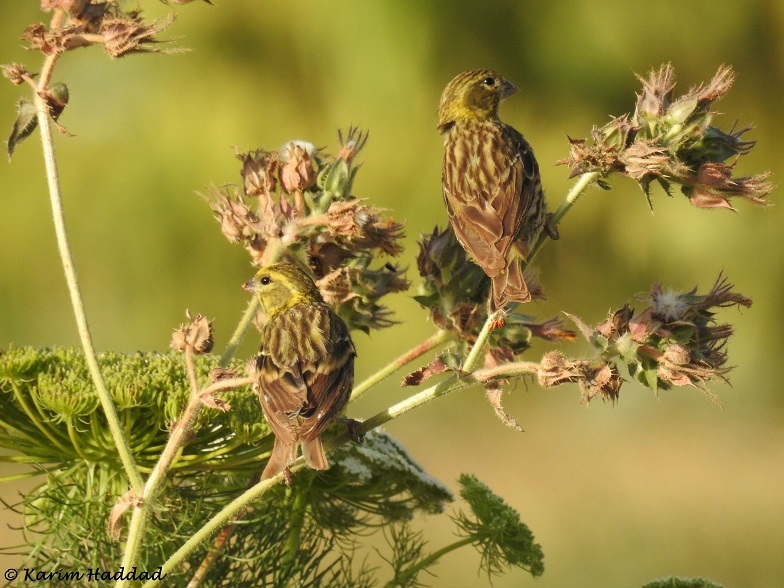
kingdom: Animalia
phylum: Chordata
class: Aves
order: Passeriformes
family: Fringillidae
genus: Serinus
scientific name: Serinus serinus
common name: European serin
